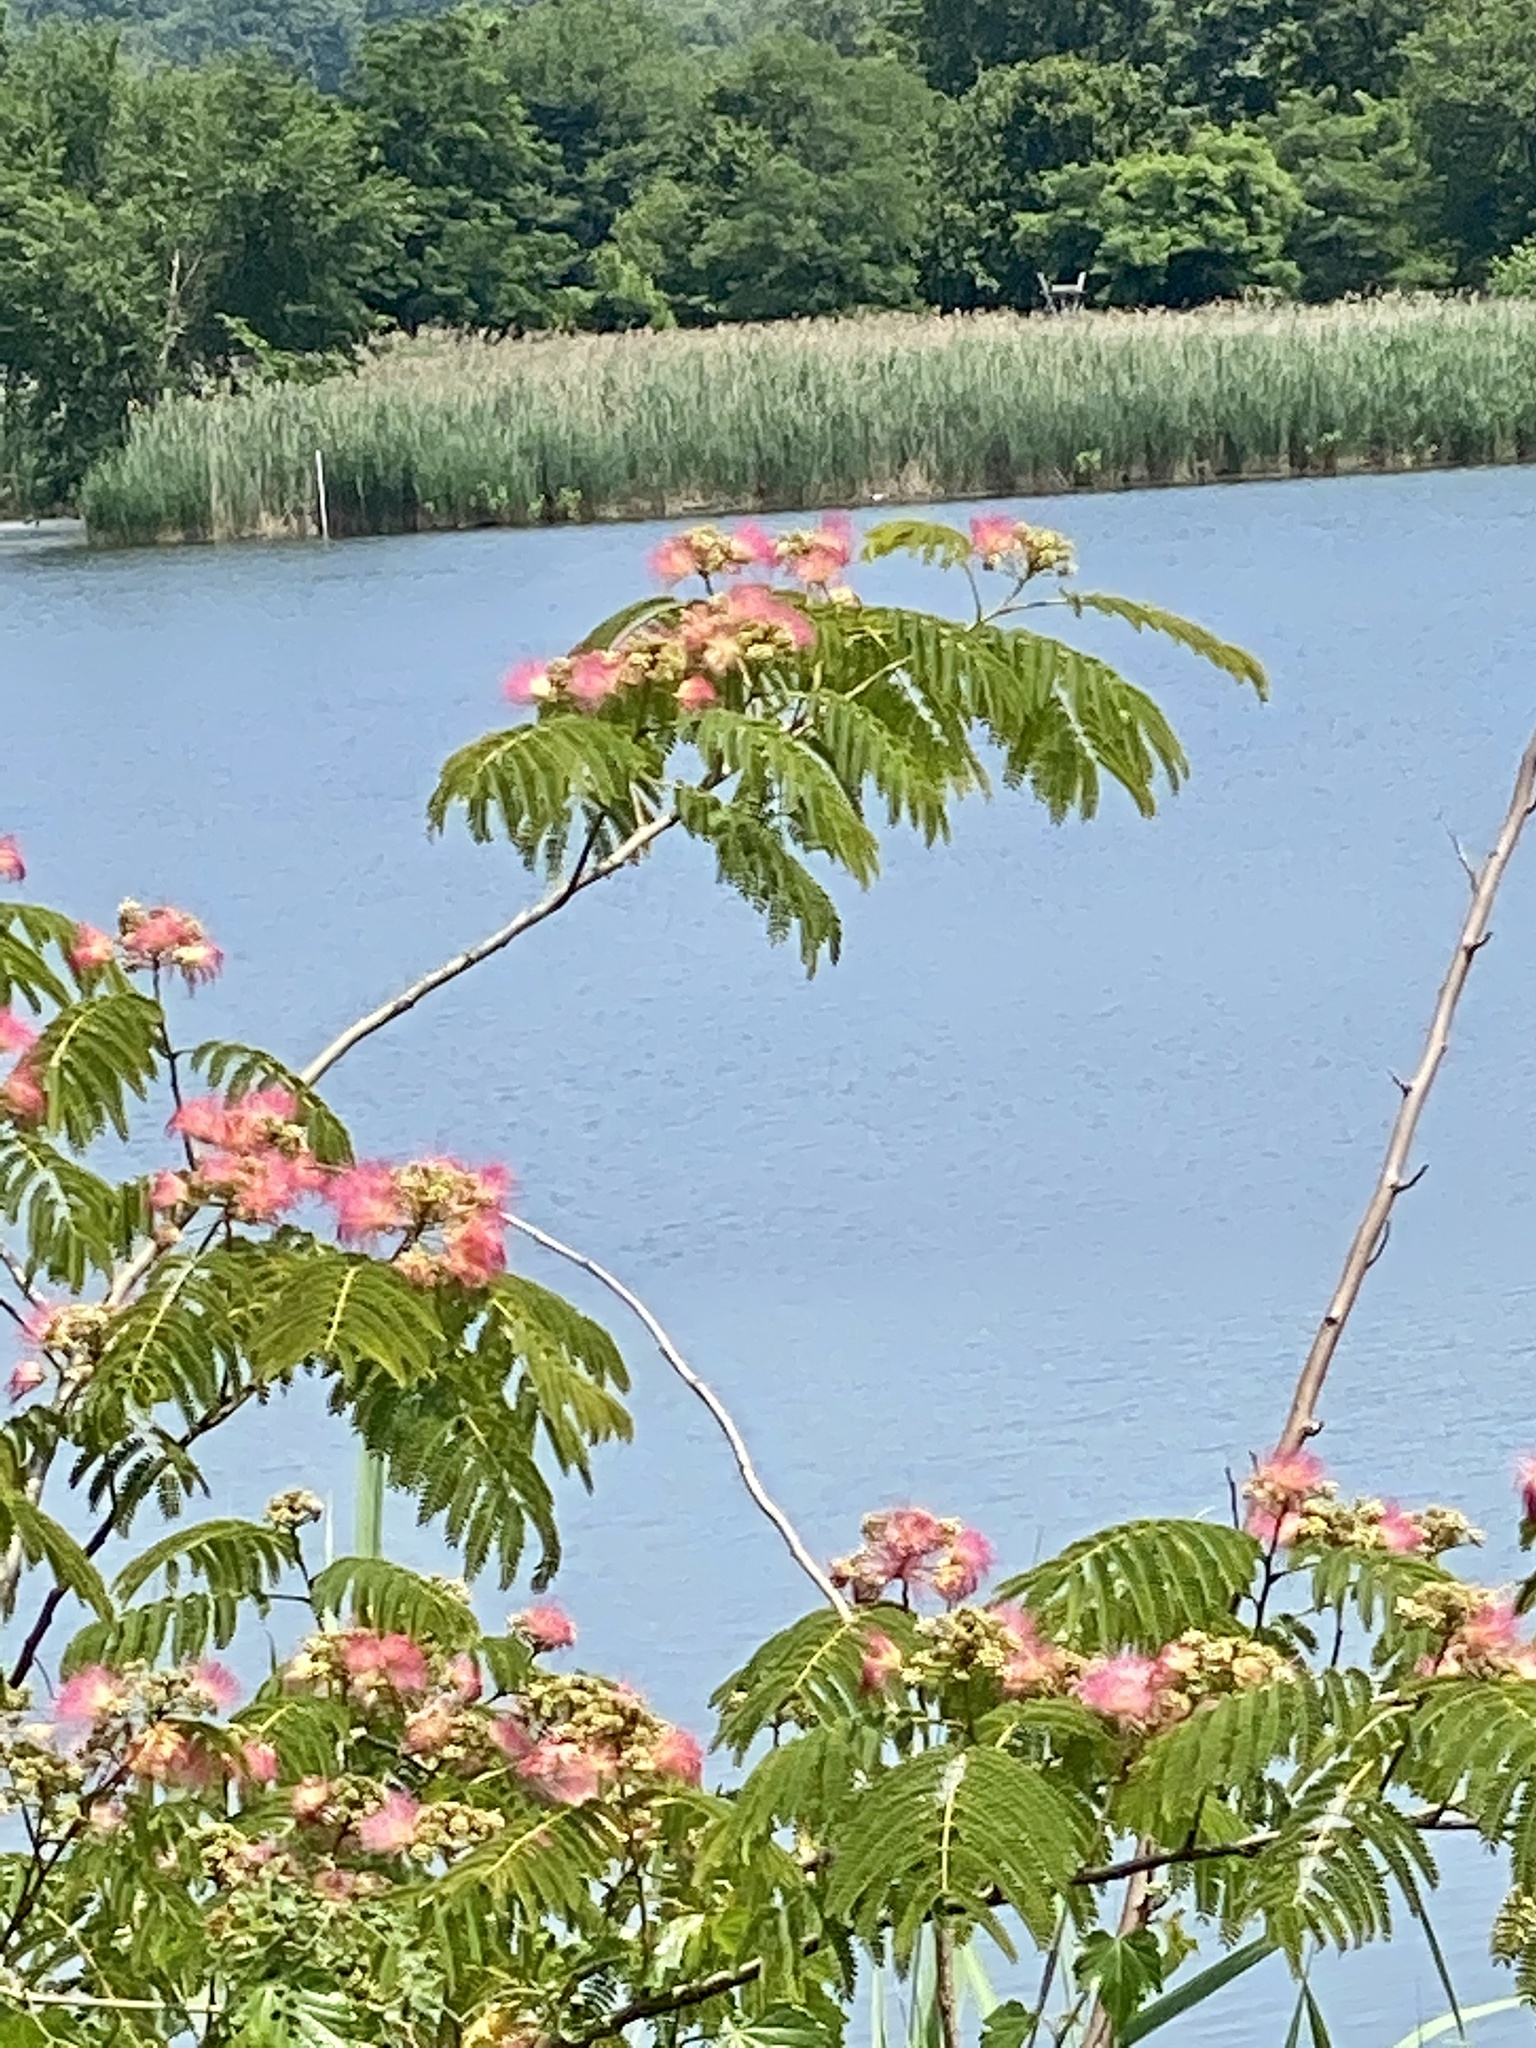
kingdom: Plantae
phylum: Tracheophyta
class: Magnoliopsida
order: Fabales
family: Fabaceae
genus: Albizia
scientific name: Albizia julibrissin
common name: Silktree
